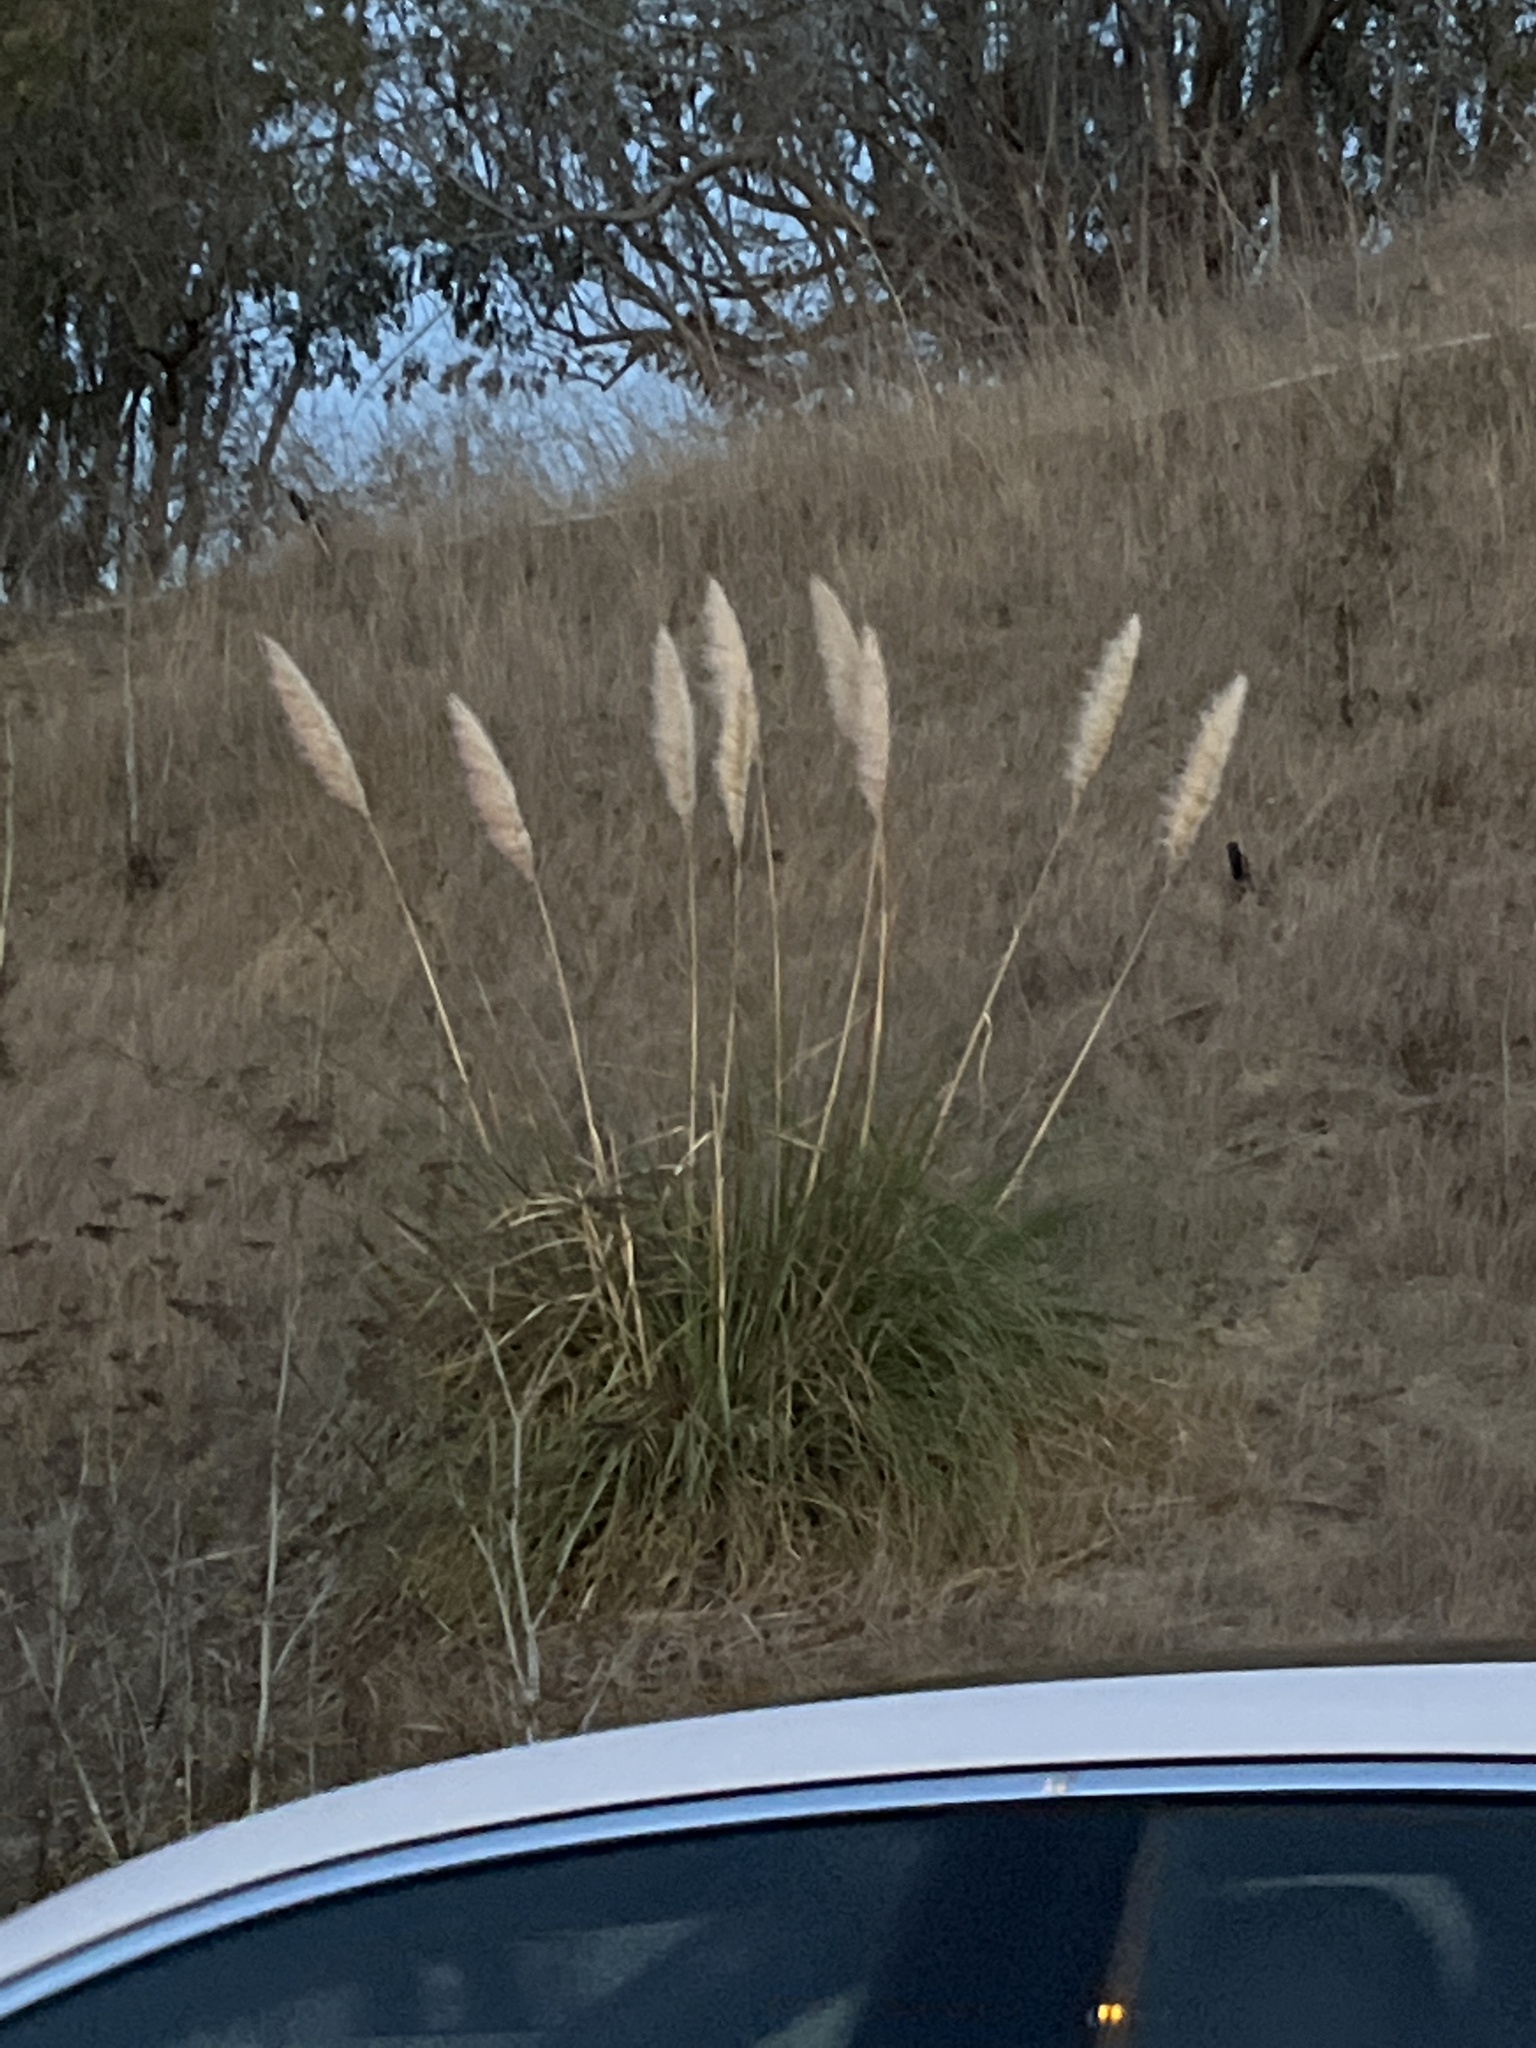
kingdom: Plantae
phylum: Tracheophyta
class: Liliopsida
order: Poales
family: Poaceae
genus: Cortaderia
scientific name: Cortaderia selloana
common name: Uruguayan pampas grass
